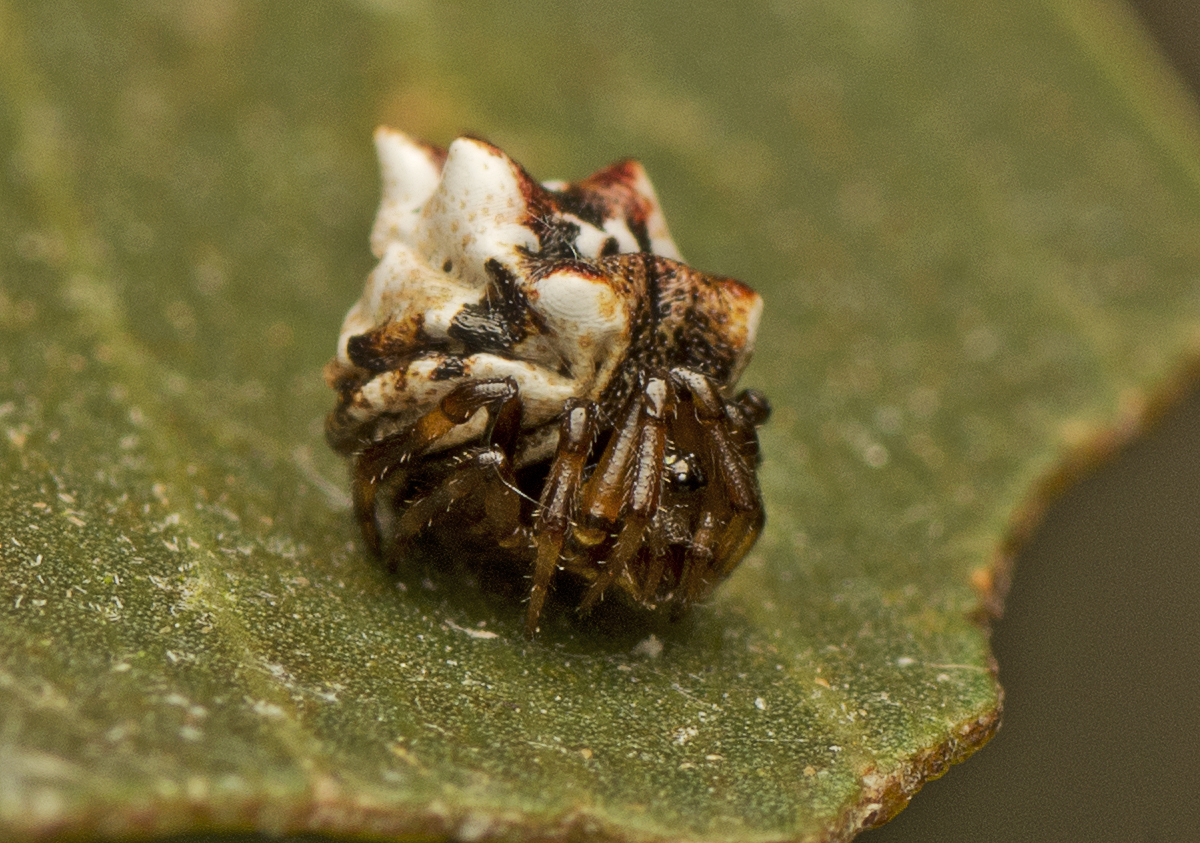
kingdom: Animalia
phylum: Arthropoda
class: Arachnida
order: Araneae
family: Theridiidae
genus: Phoroncidia
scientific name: Phoroncidia sextuberculata
